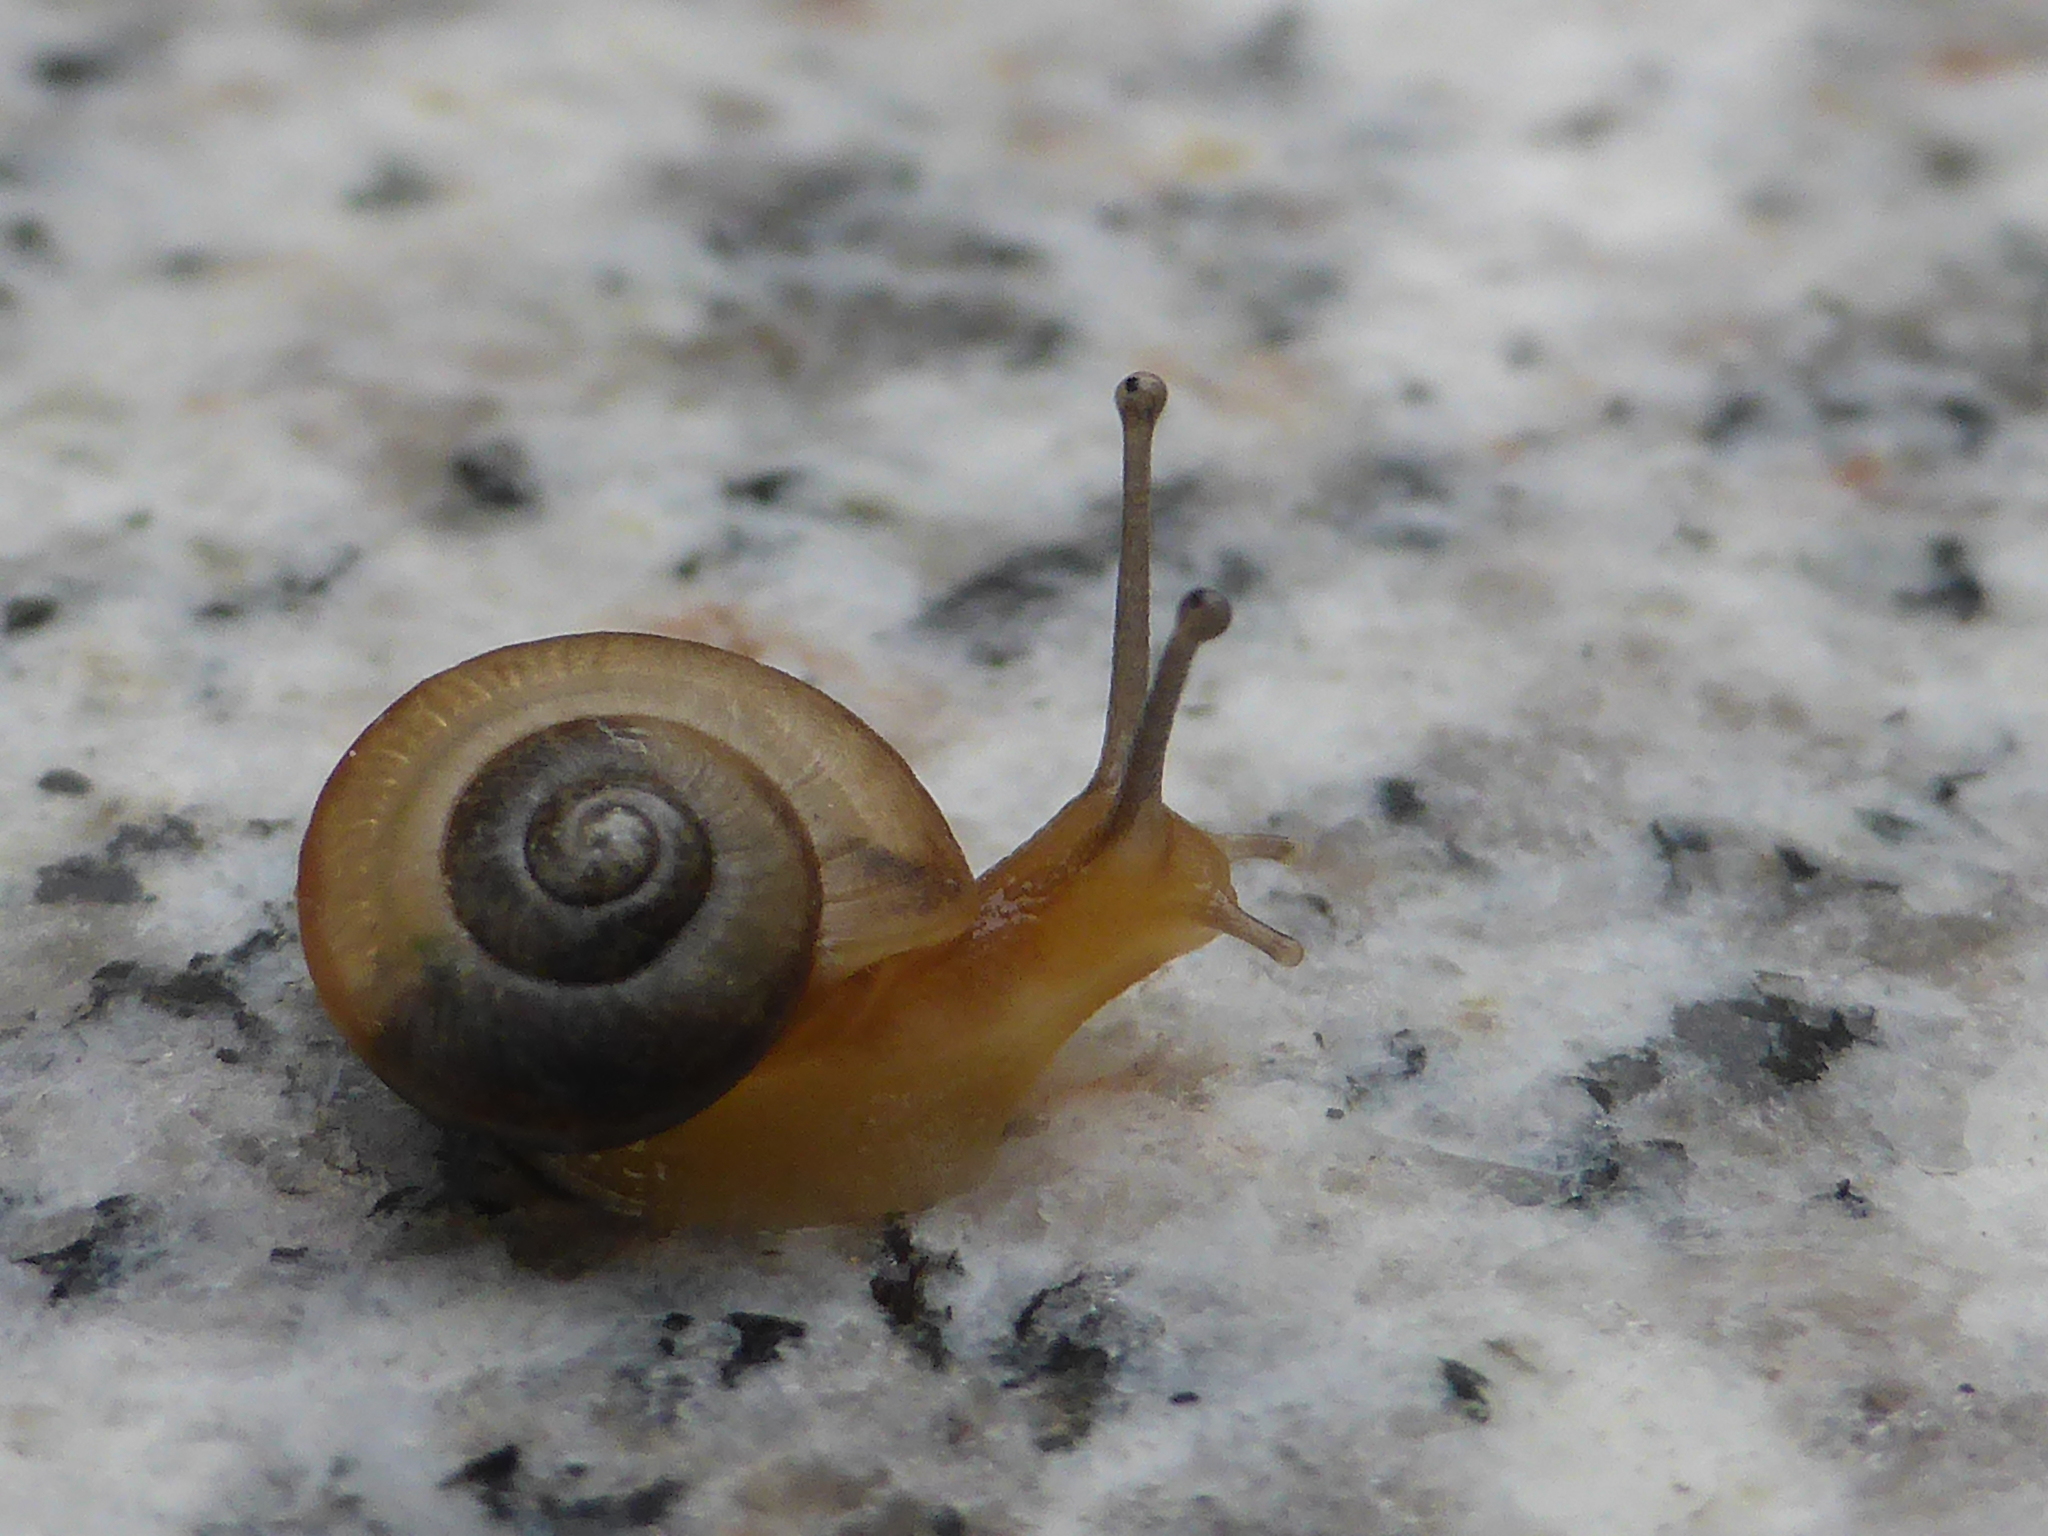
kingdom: Animalia
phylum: Mollusca
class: Gastropoda
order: Stylommatophora
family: Camaenidae
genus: Bradybaena
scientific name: Bradybaena similaris
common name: Asian trampsnail
